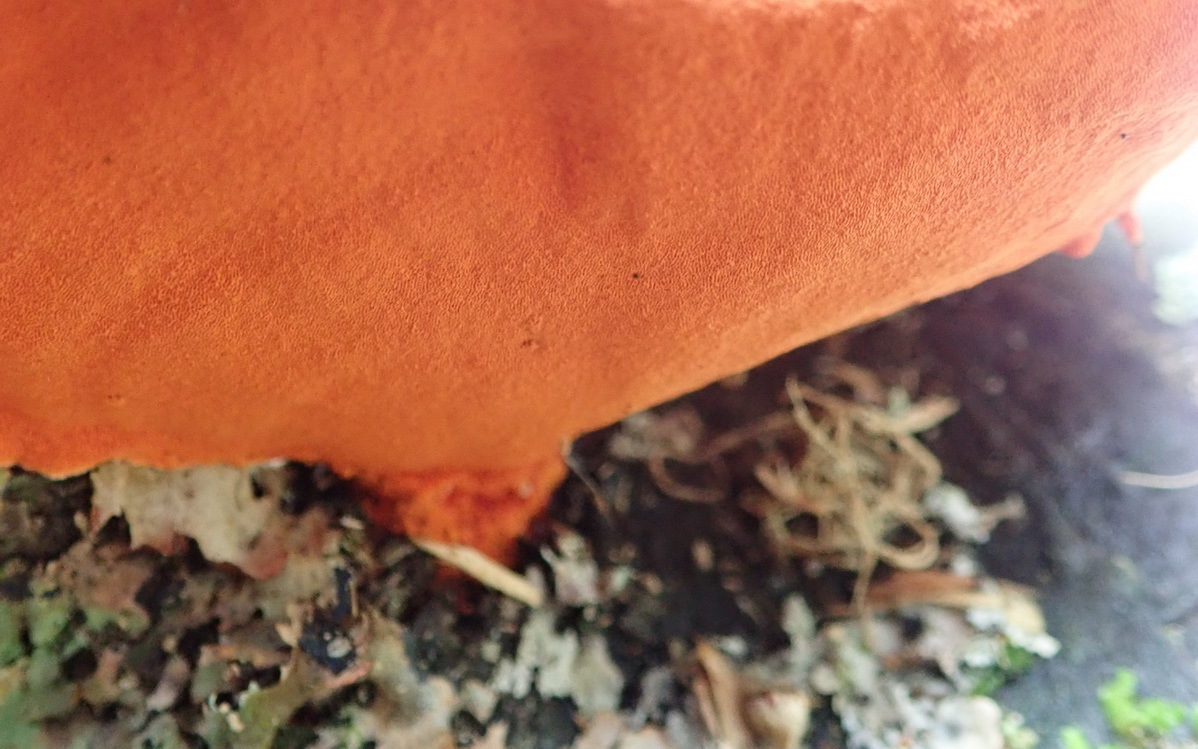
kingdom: Fungi
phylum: Basidiomycota
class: Agaricomycetes
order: Polyporales
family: Polyporaceae
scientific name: Polyporaceae
